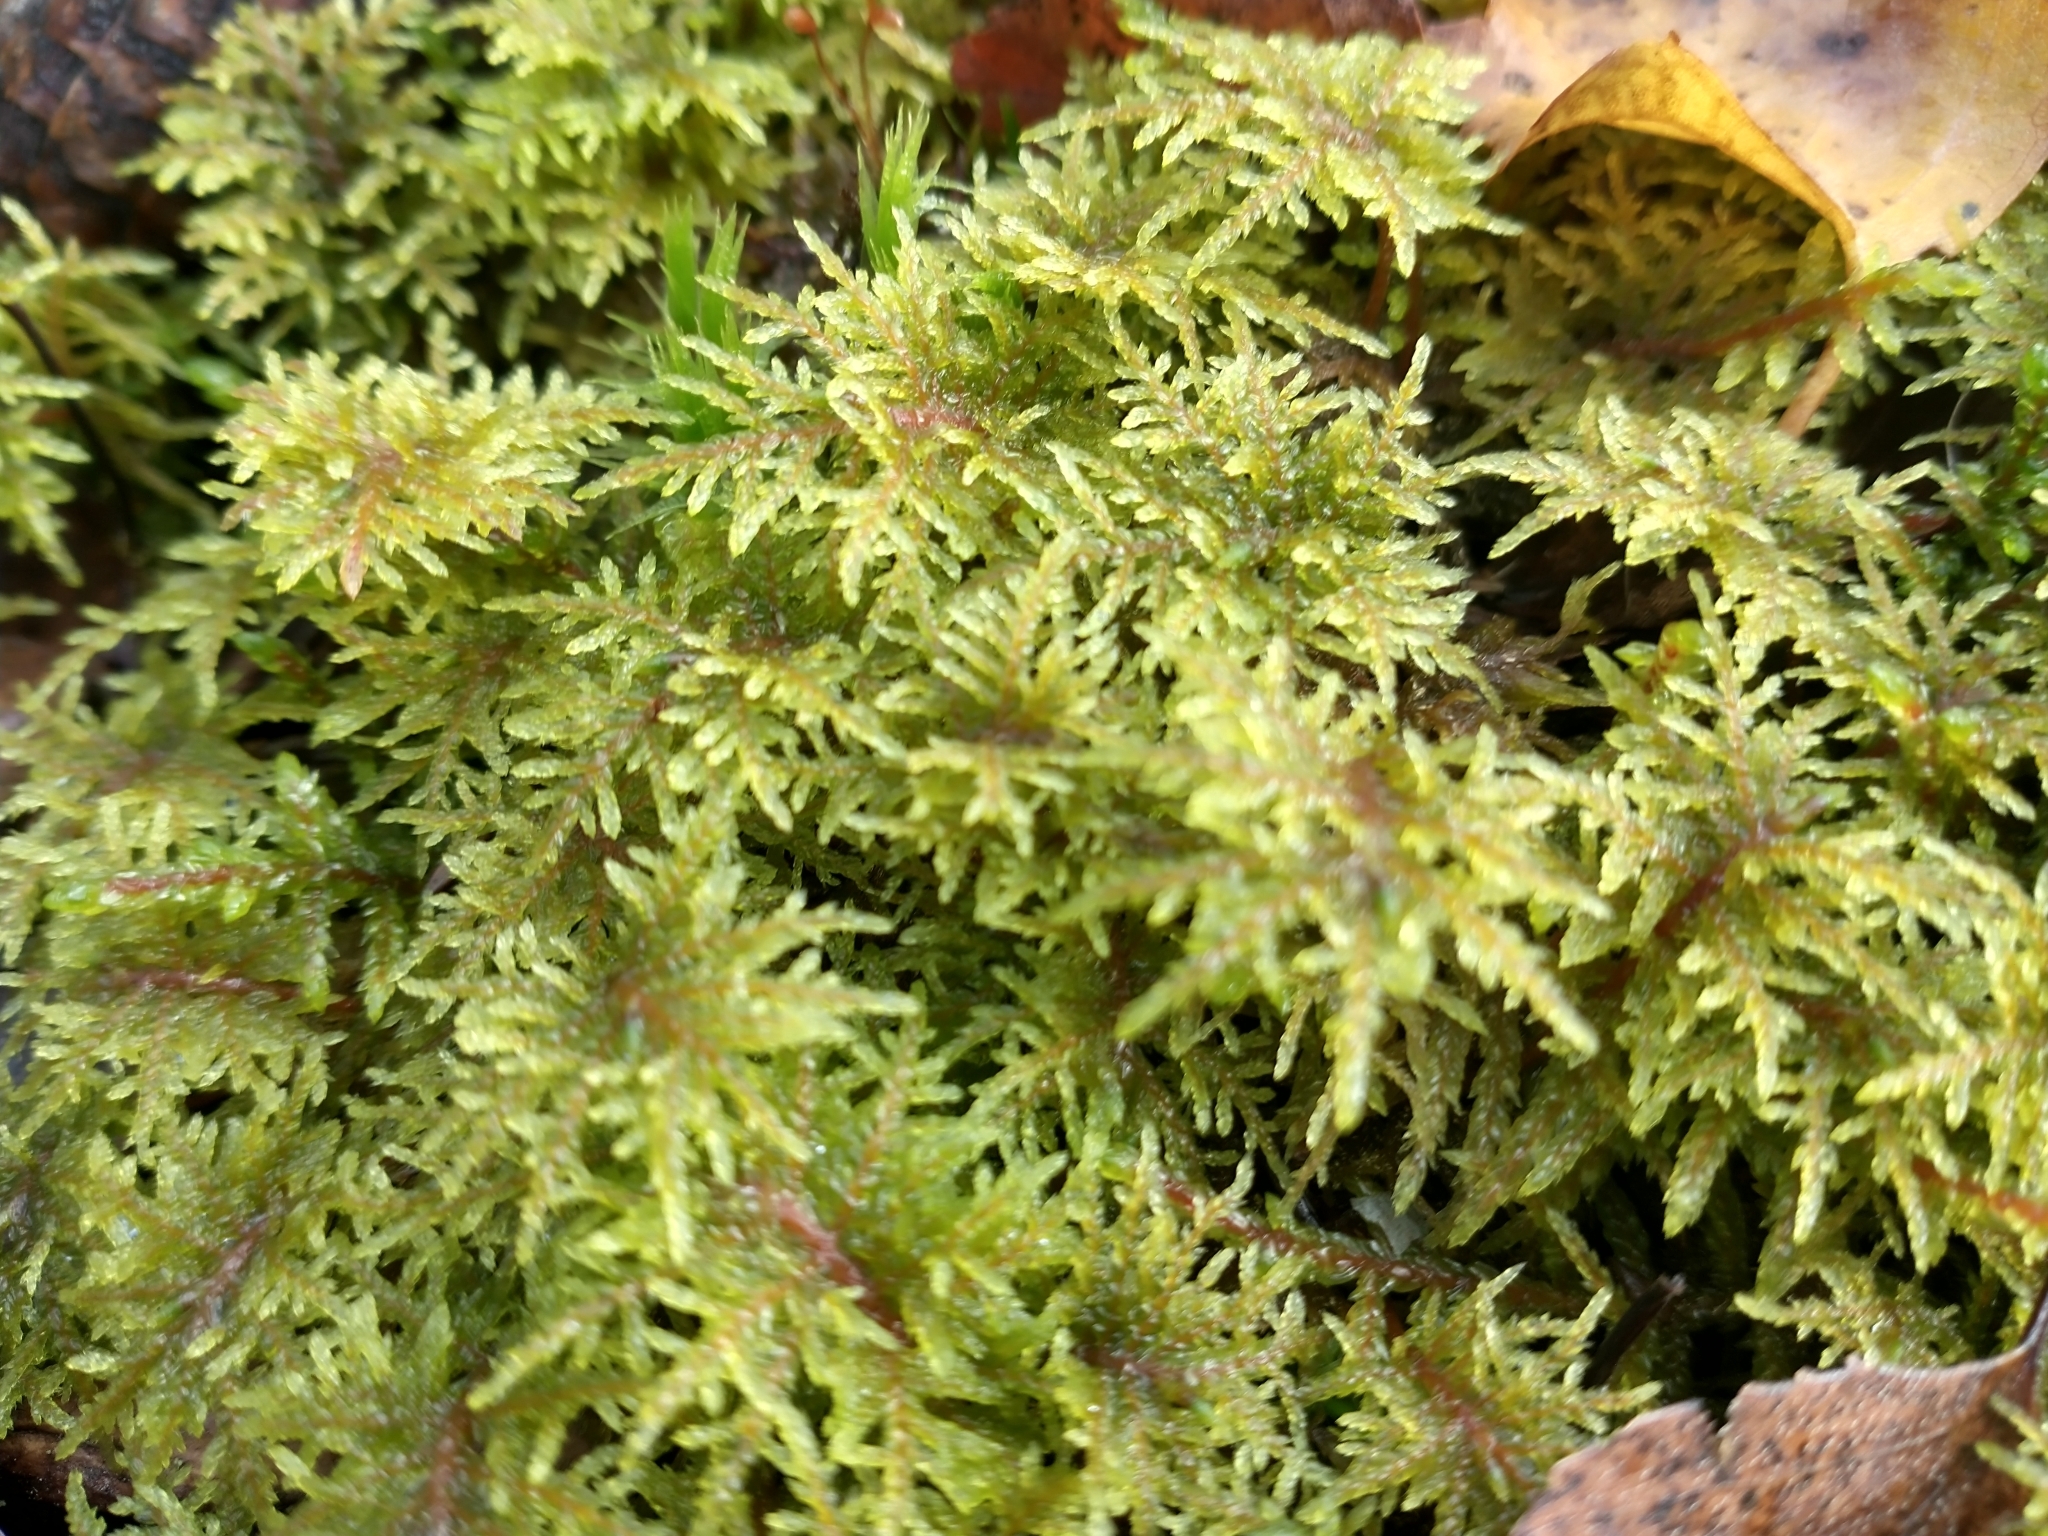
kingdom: Plantae
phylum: Bryophyta
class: Bryopsida
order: Hypnales
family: Hylocomiaceae
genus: Hylocomium
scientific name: Hylocomium splendens
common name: Stairstep moss
